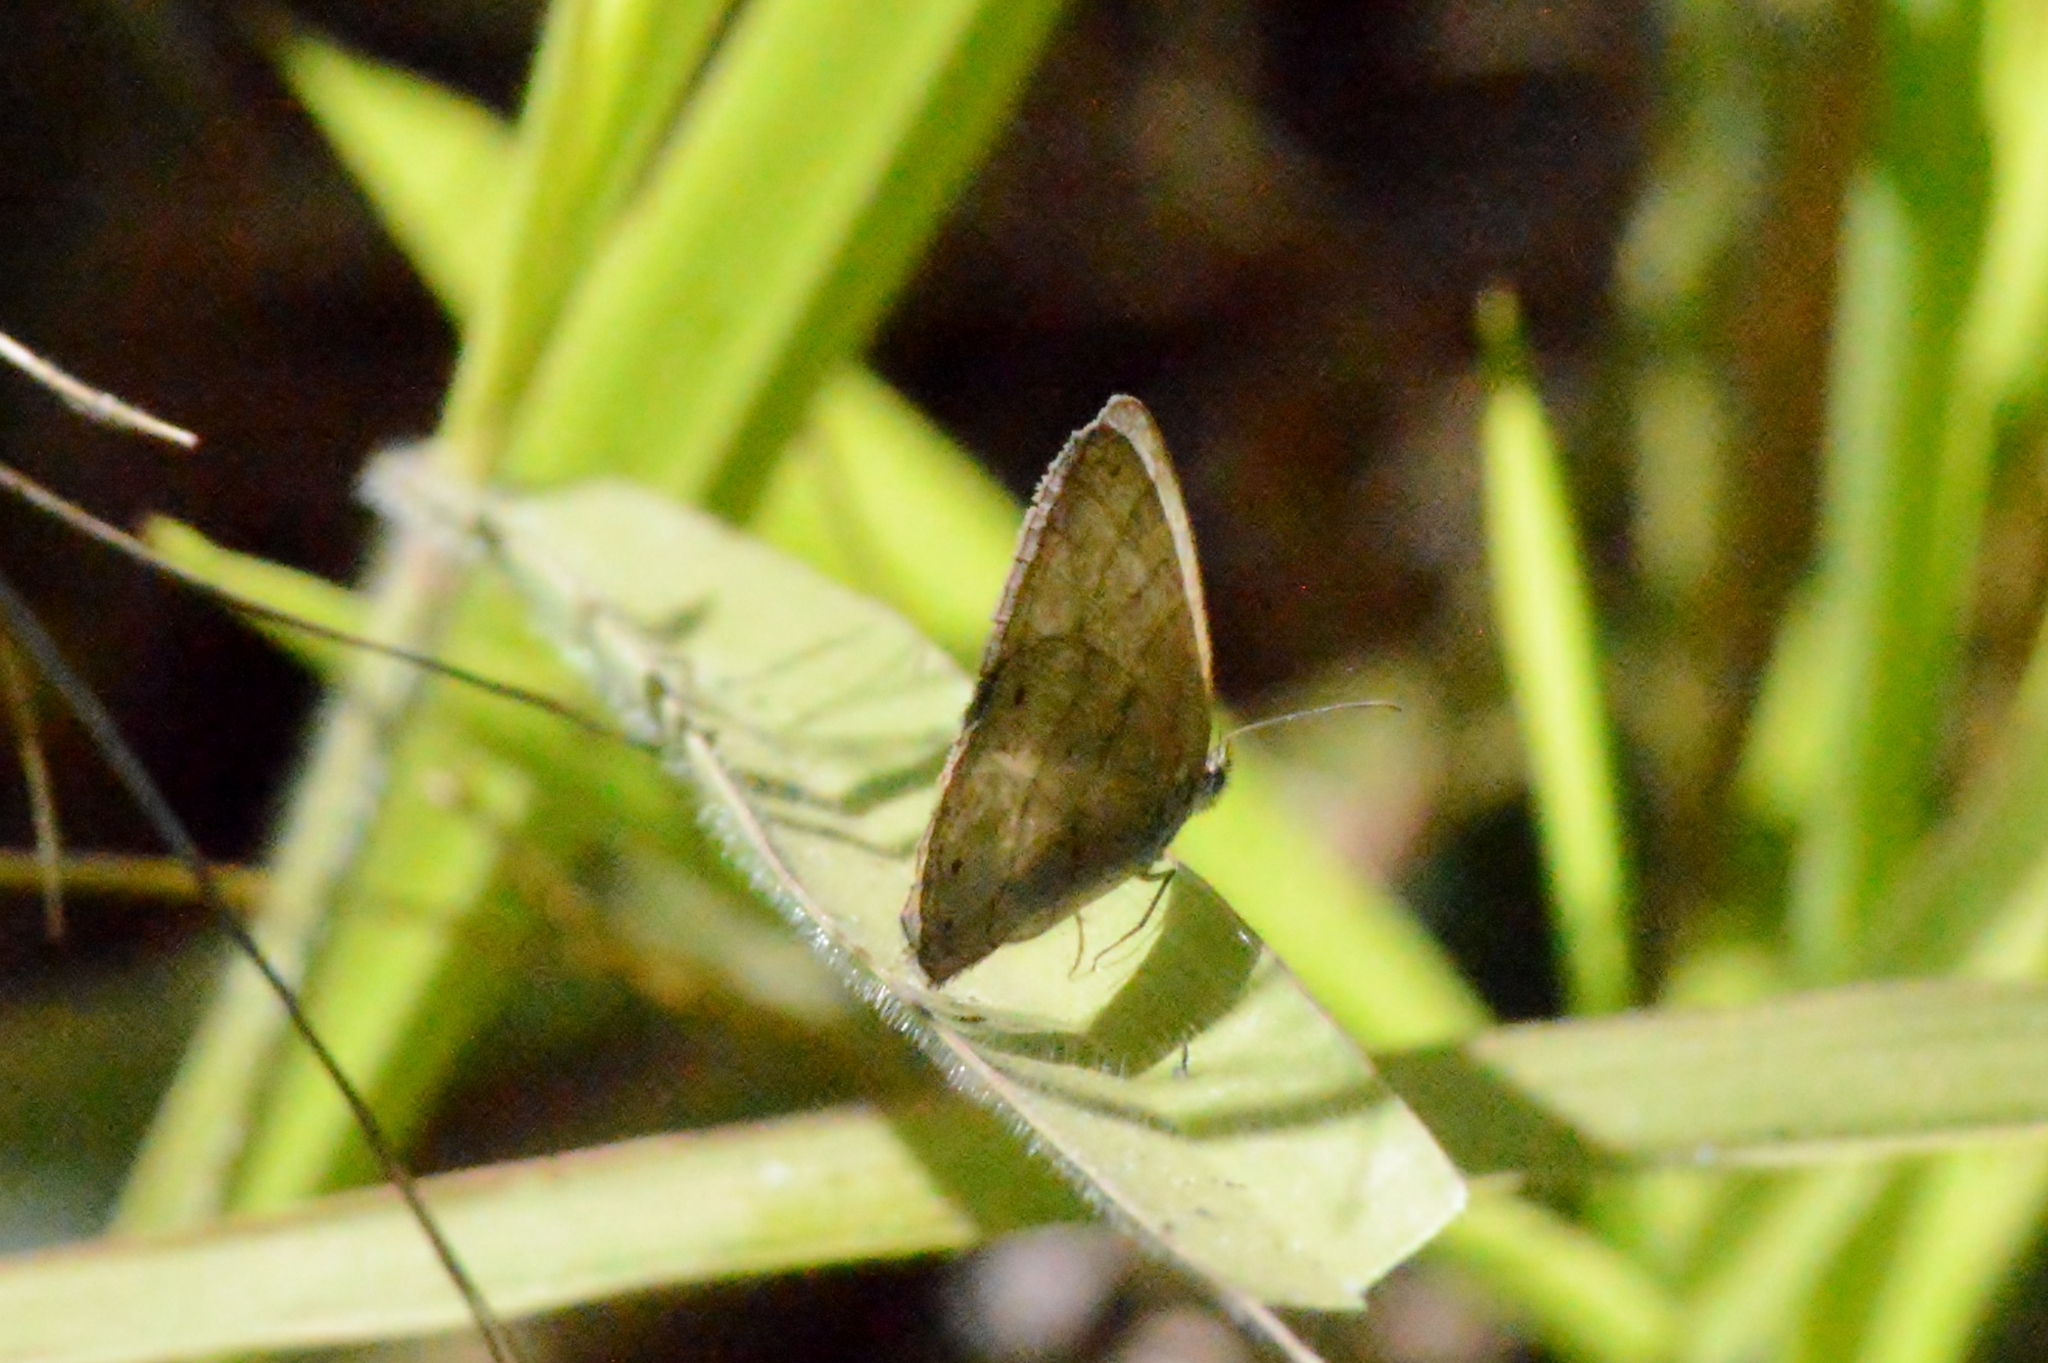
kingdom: Animalia
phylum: Arthropoda
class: Insecta
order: Lepidoptera
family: Nymphalidae
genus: Euptychiina
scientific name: Euptychiina
